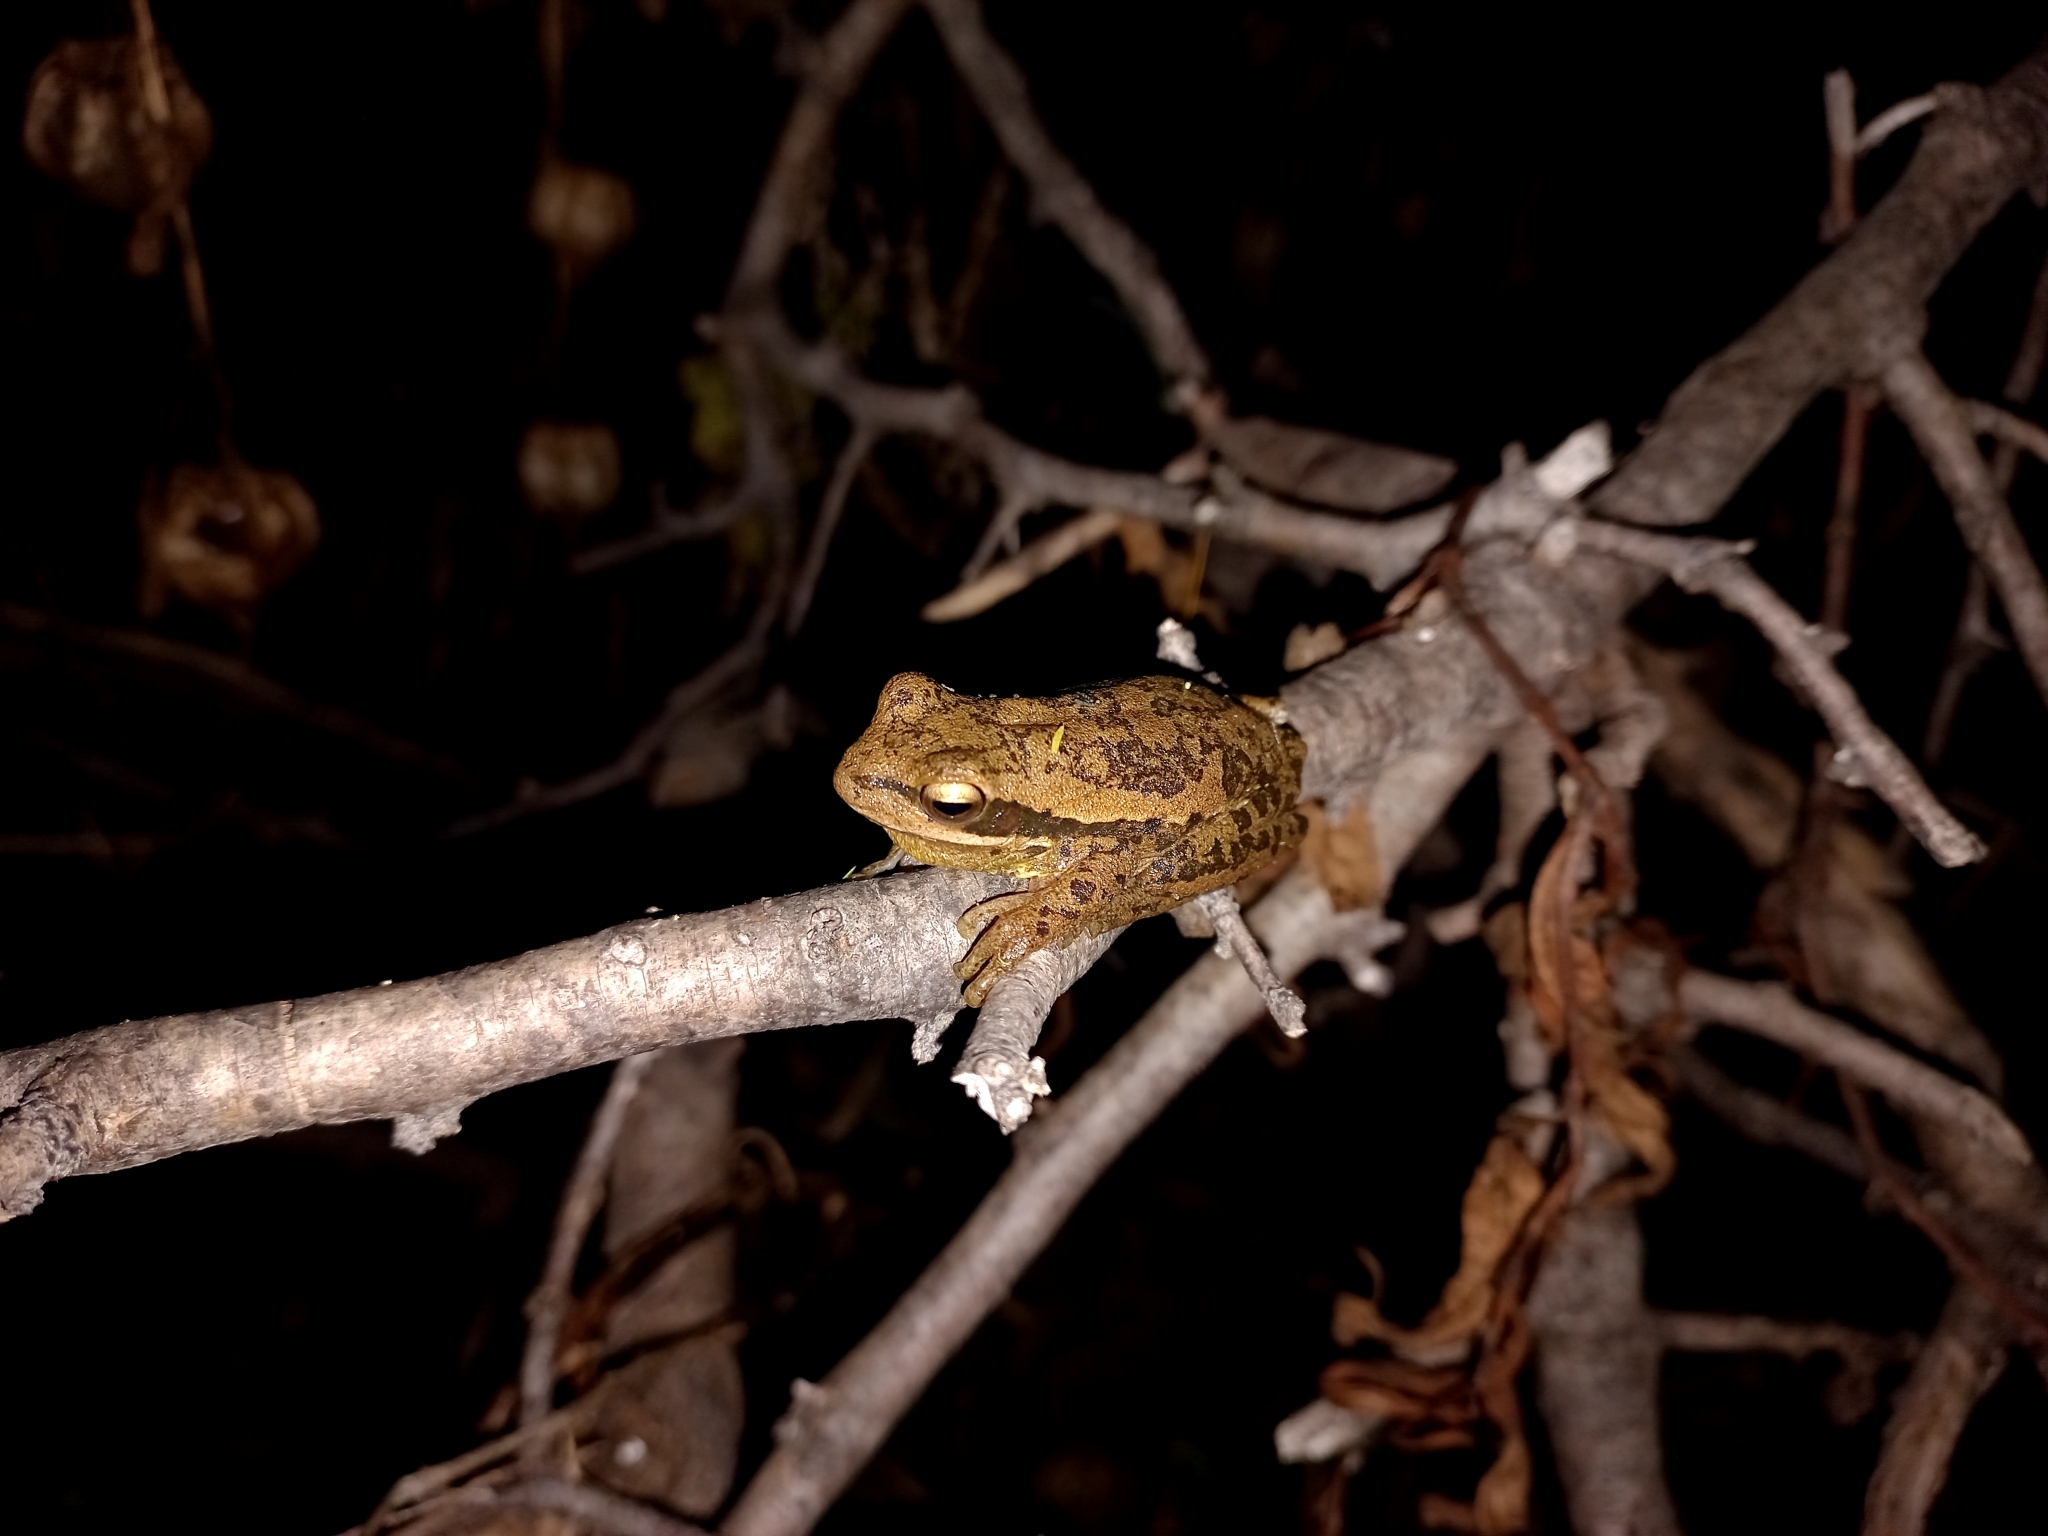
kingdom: Animalia
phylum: Chordata
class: Amphibia
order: Anura
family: Hylidae
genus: Boana
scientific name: Boana pulchella
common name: Montevideo treefrog
